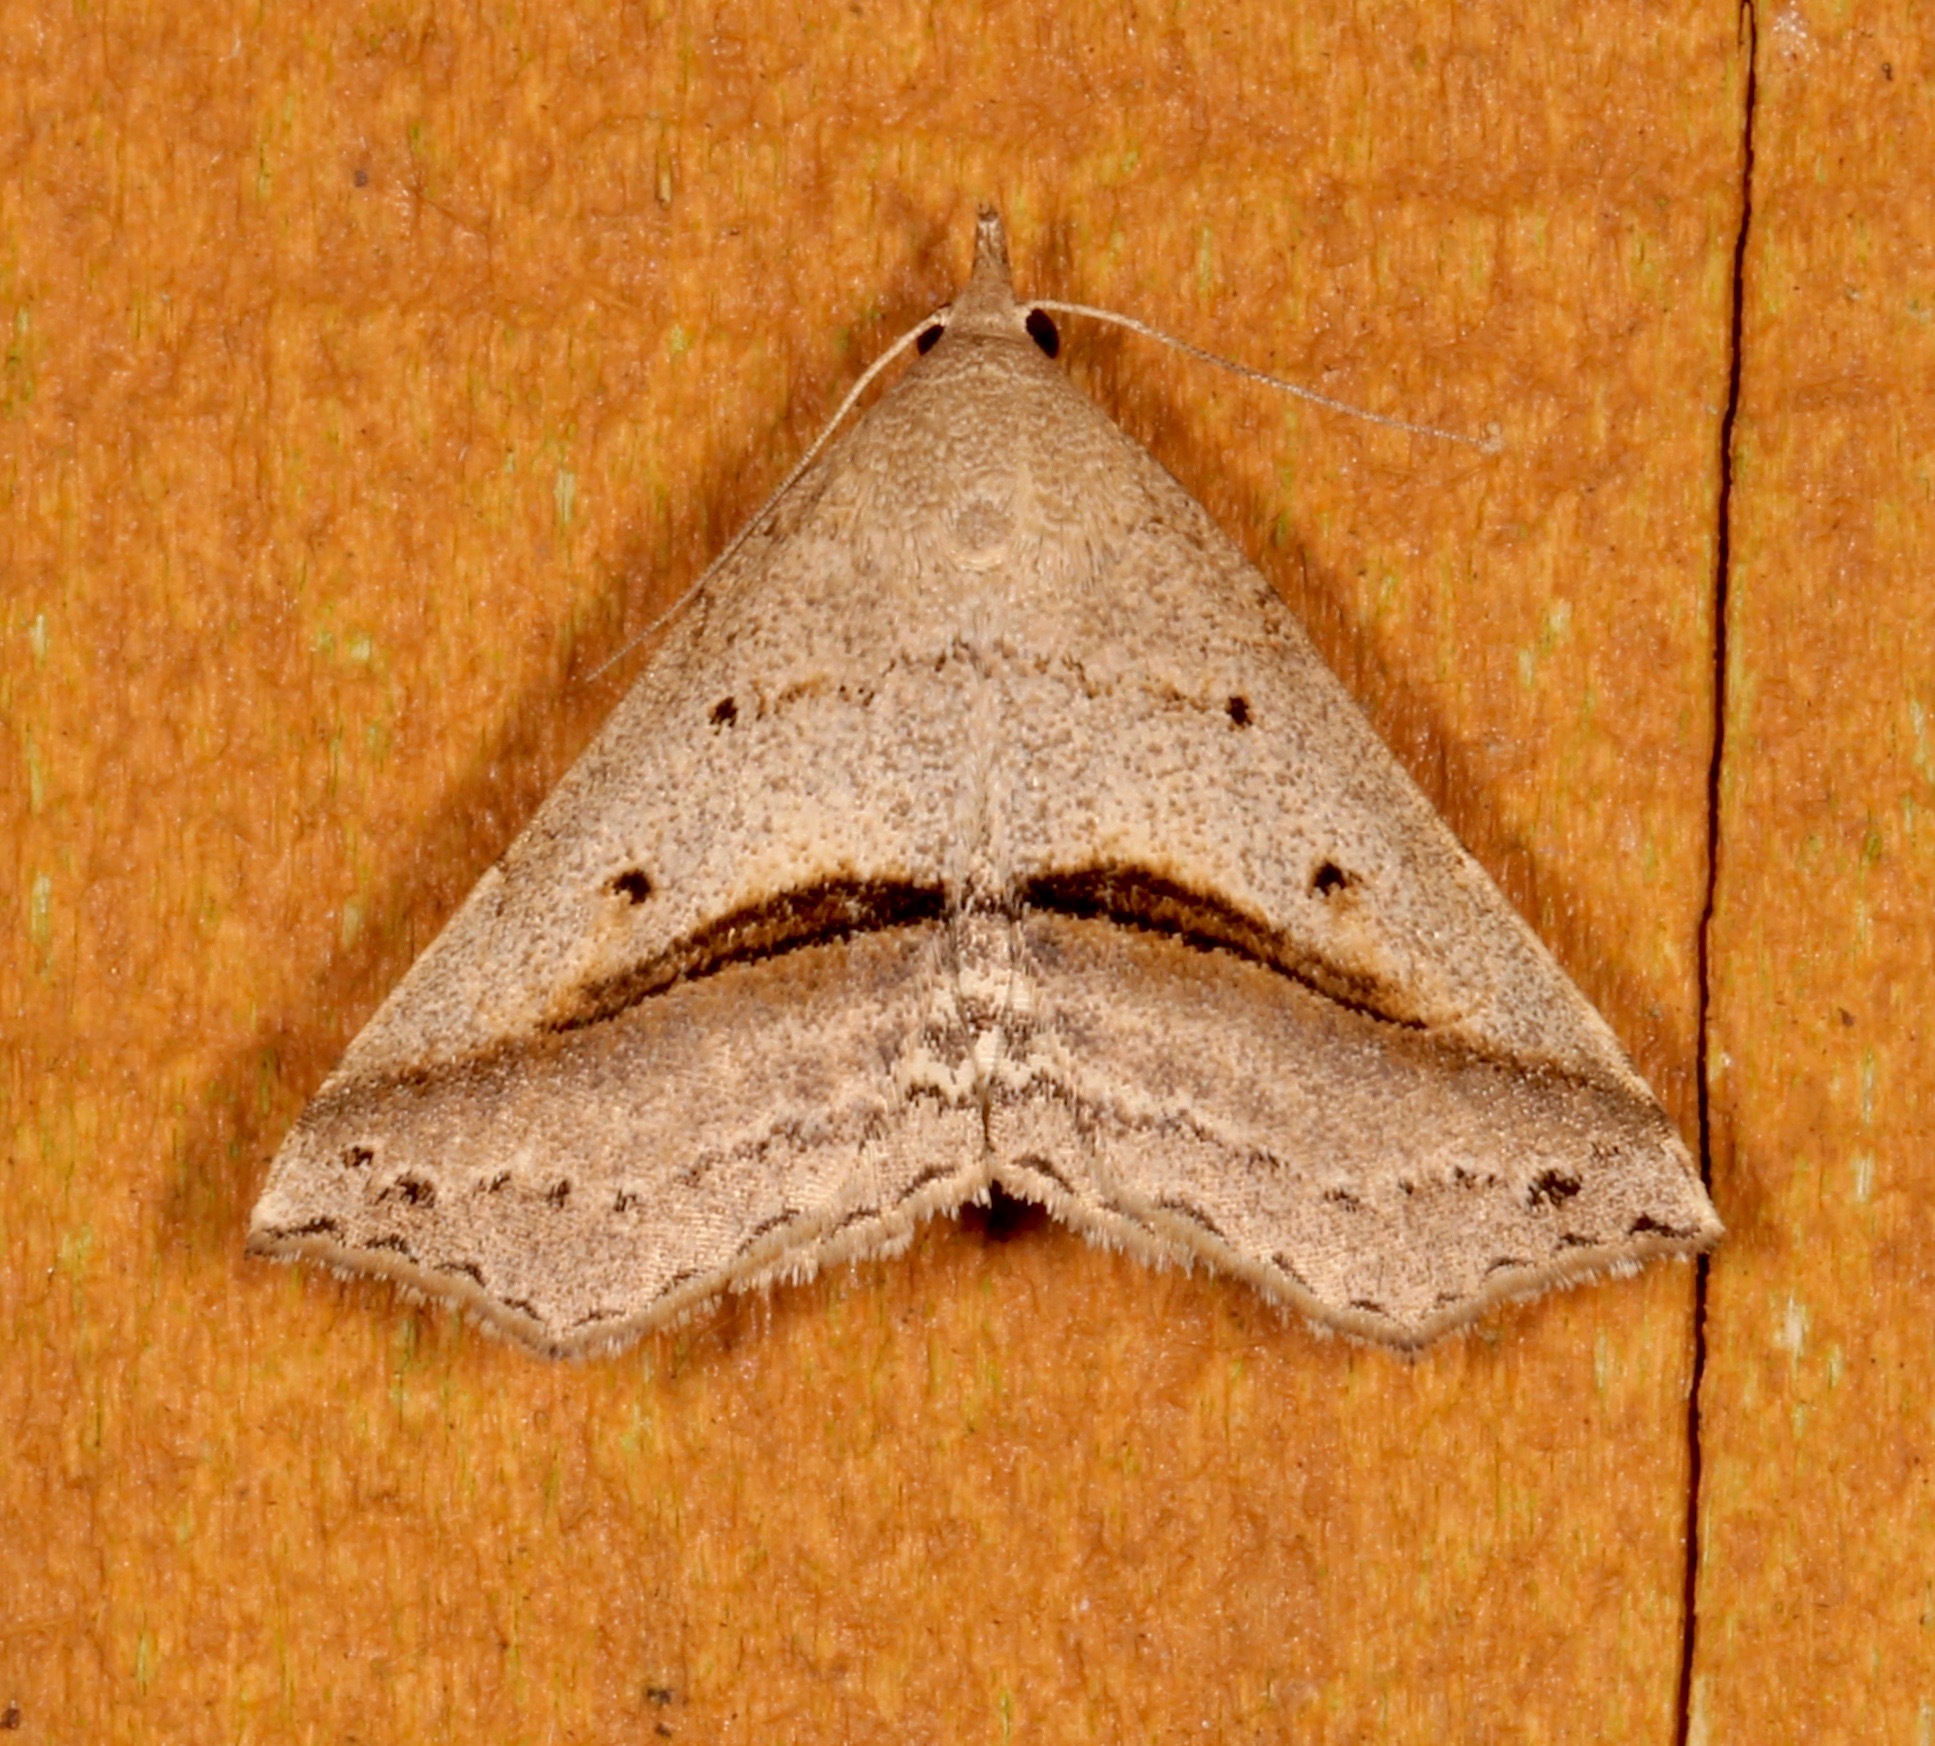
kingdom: Animalia
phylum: Arthropoda
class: Insecta
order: Lepidoptera
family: Erebidae
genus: Spargaloma
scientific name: Spargaloma perditalis
